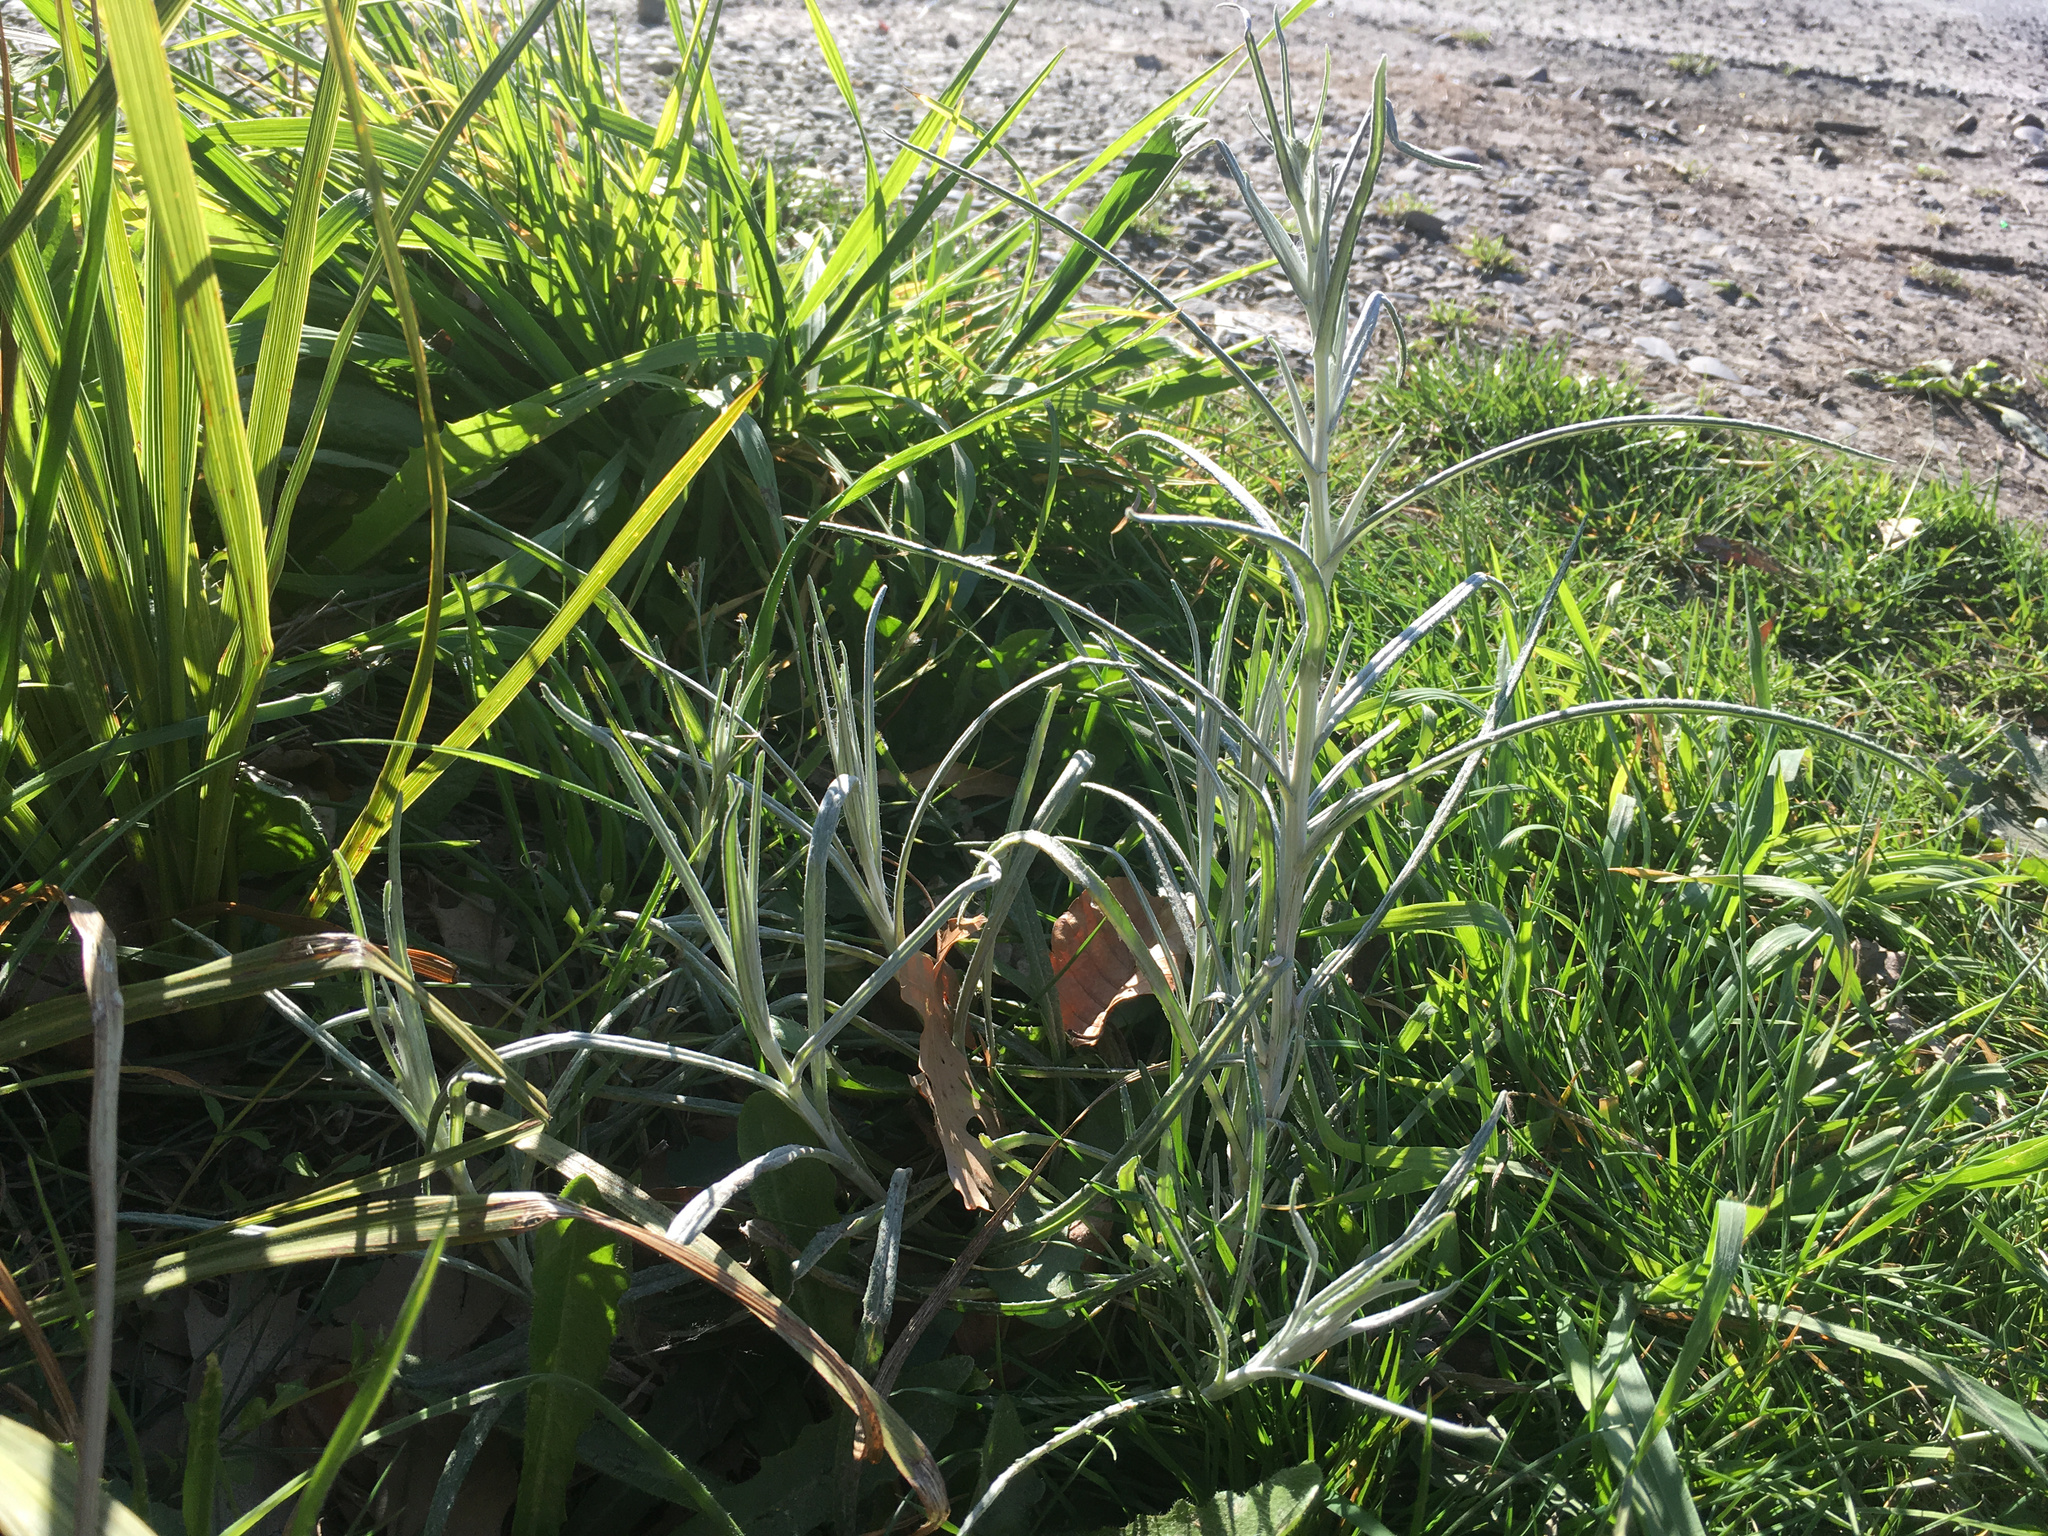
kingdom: Plantae
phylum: Tracheophyta
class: Magnoliopsida
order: Asterales
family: Asteraceae
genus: Senecio
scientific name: Senecio quadridentatus
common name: Cotton fireweed
